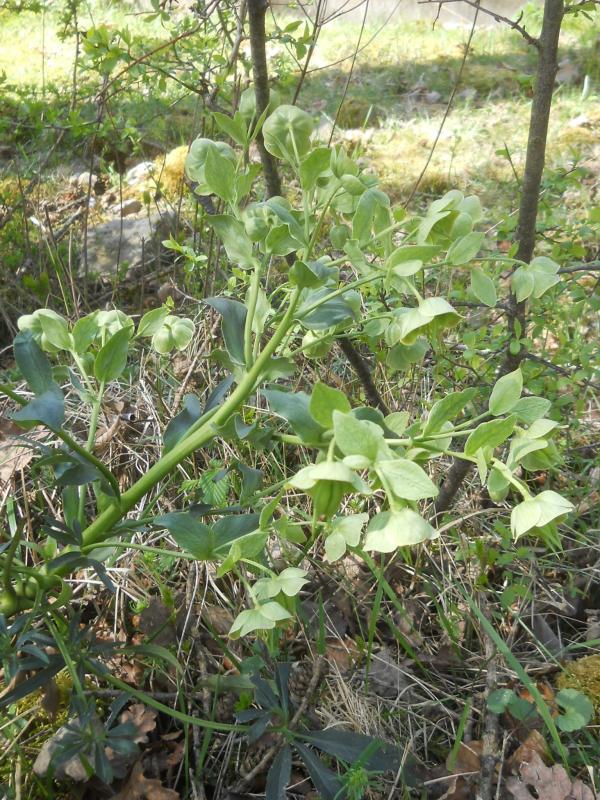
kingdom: Plantae
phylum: Tracheophyta
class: Magnoliopsida
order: Ranunculales
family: Ranunculaceae
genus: Helleborus
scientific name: Helleborus foetidus
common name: Stinking hellebore
